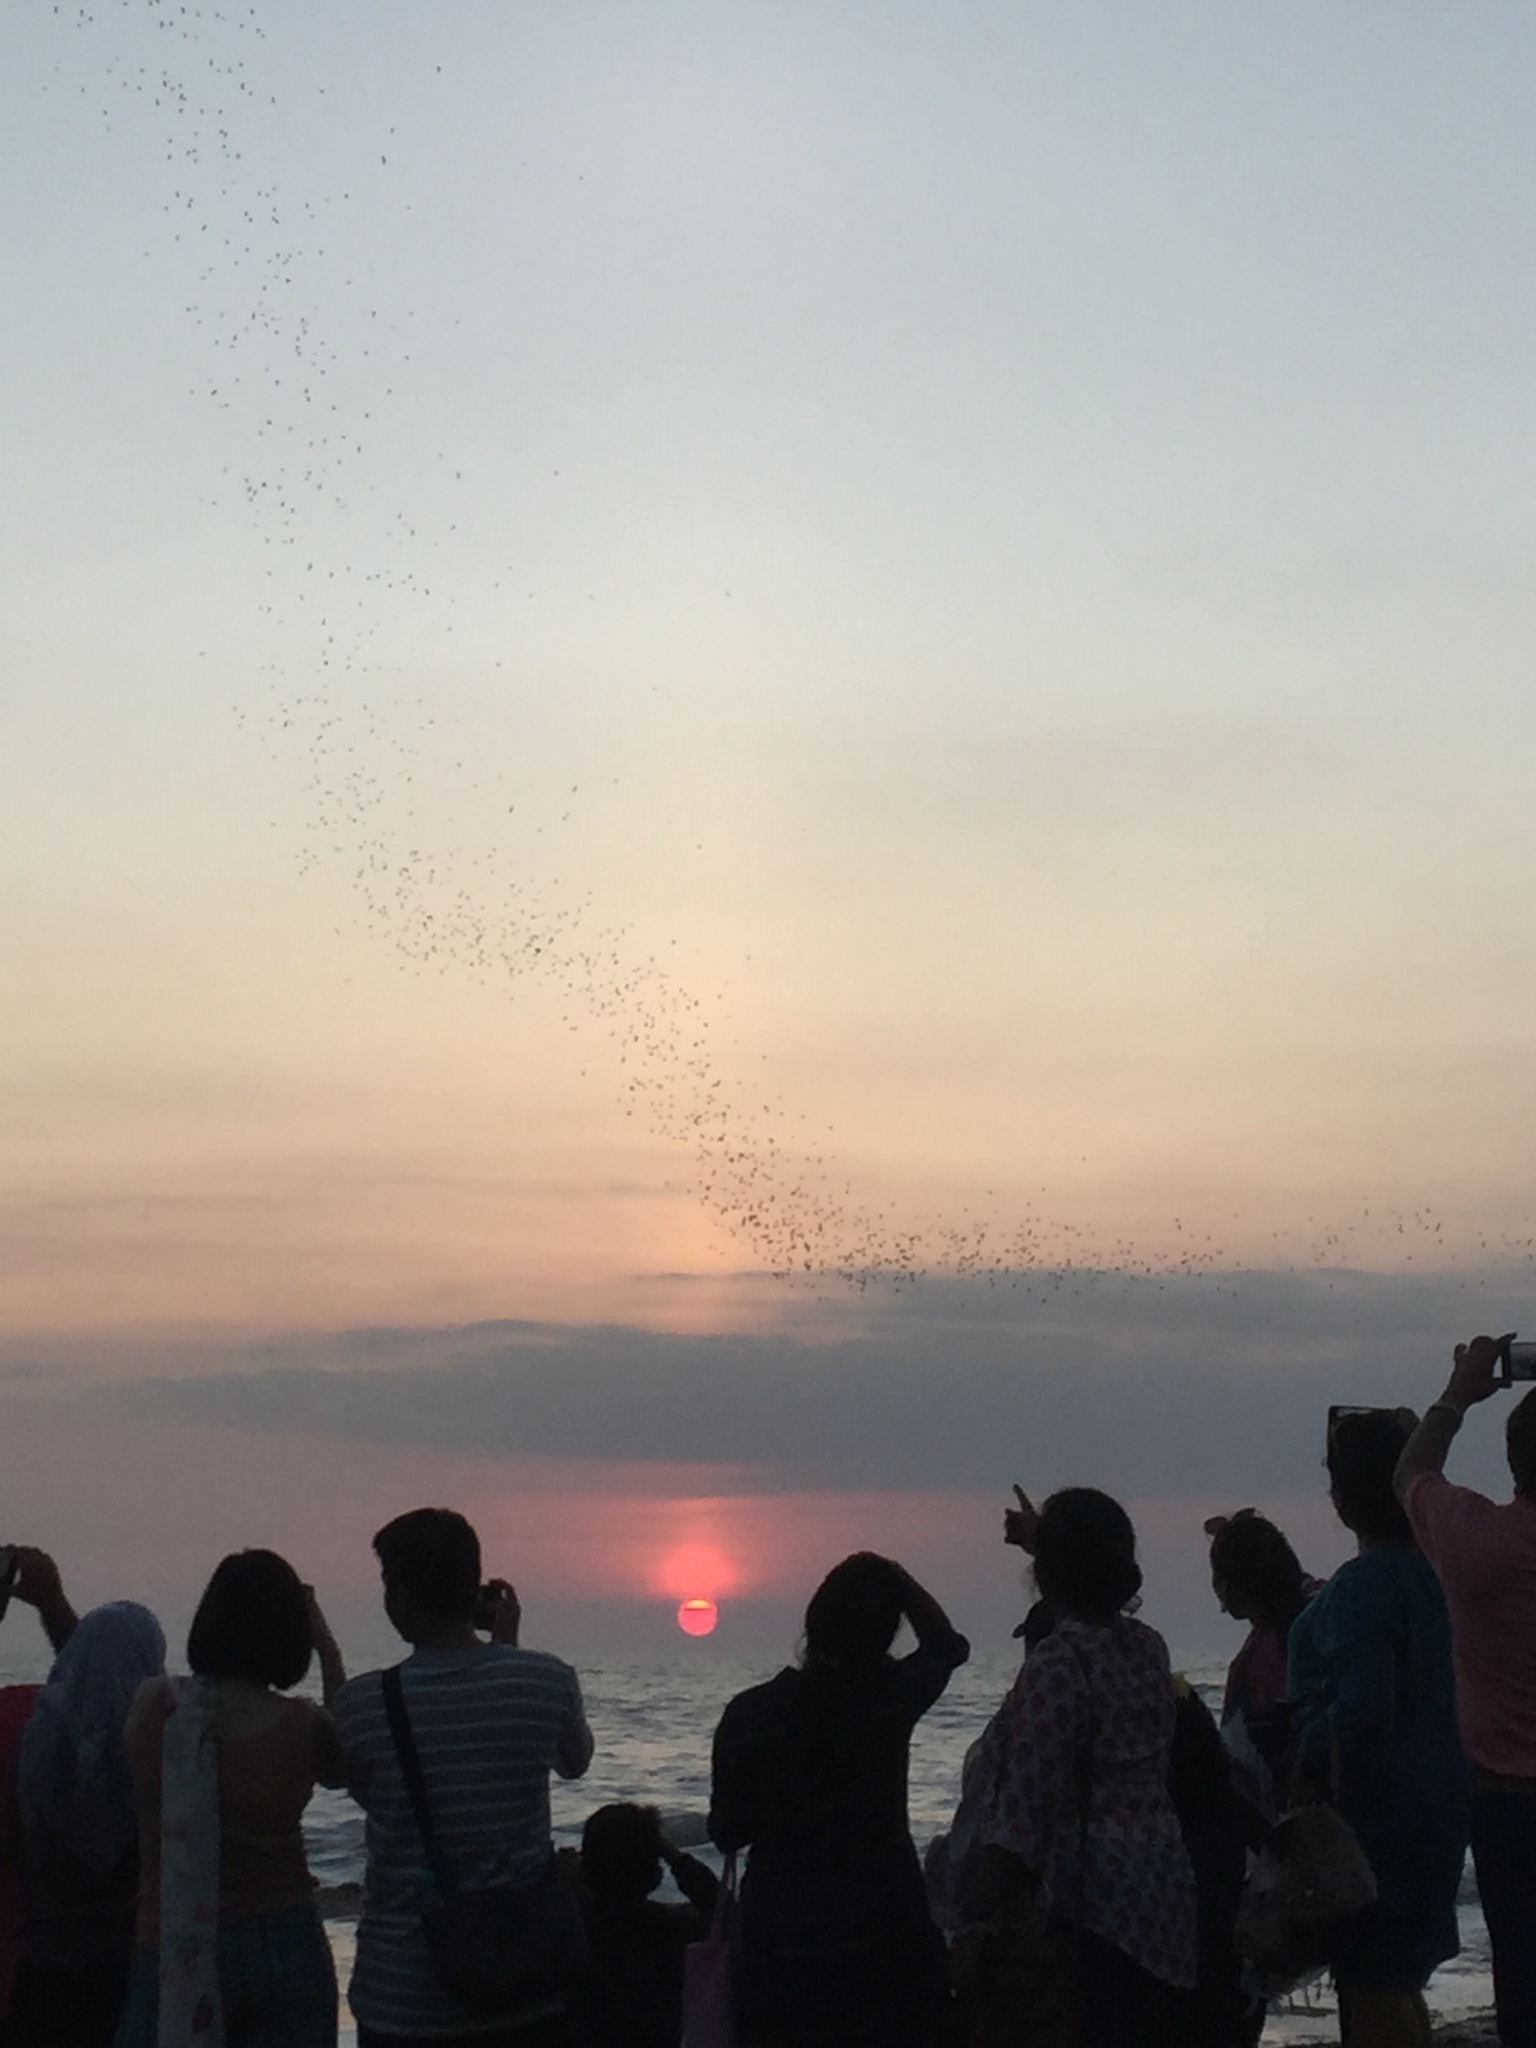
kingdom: Animalia
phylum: Chordata
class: Mammalia
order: Chiroptera
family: Molossidae
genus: Mops
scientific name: Mops
